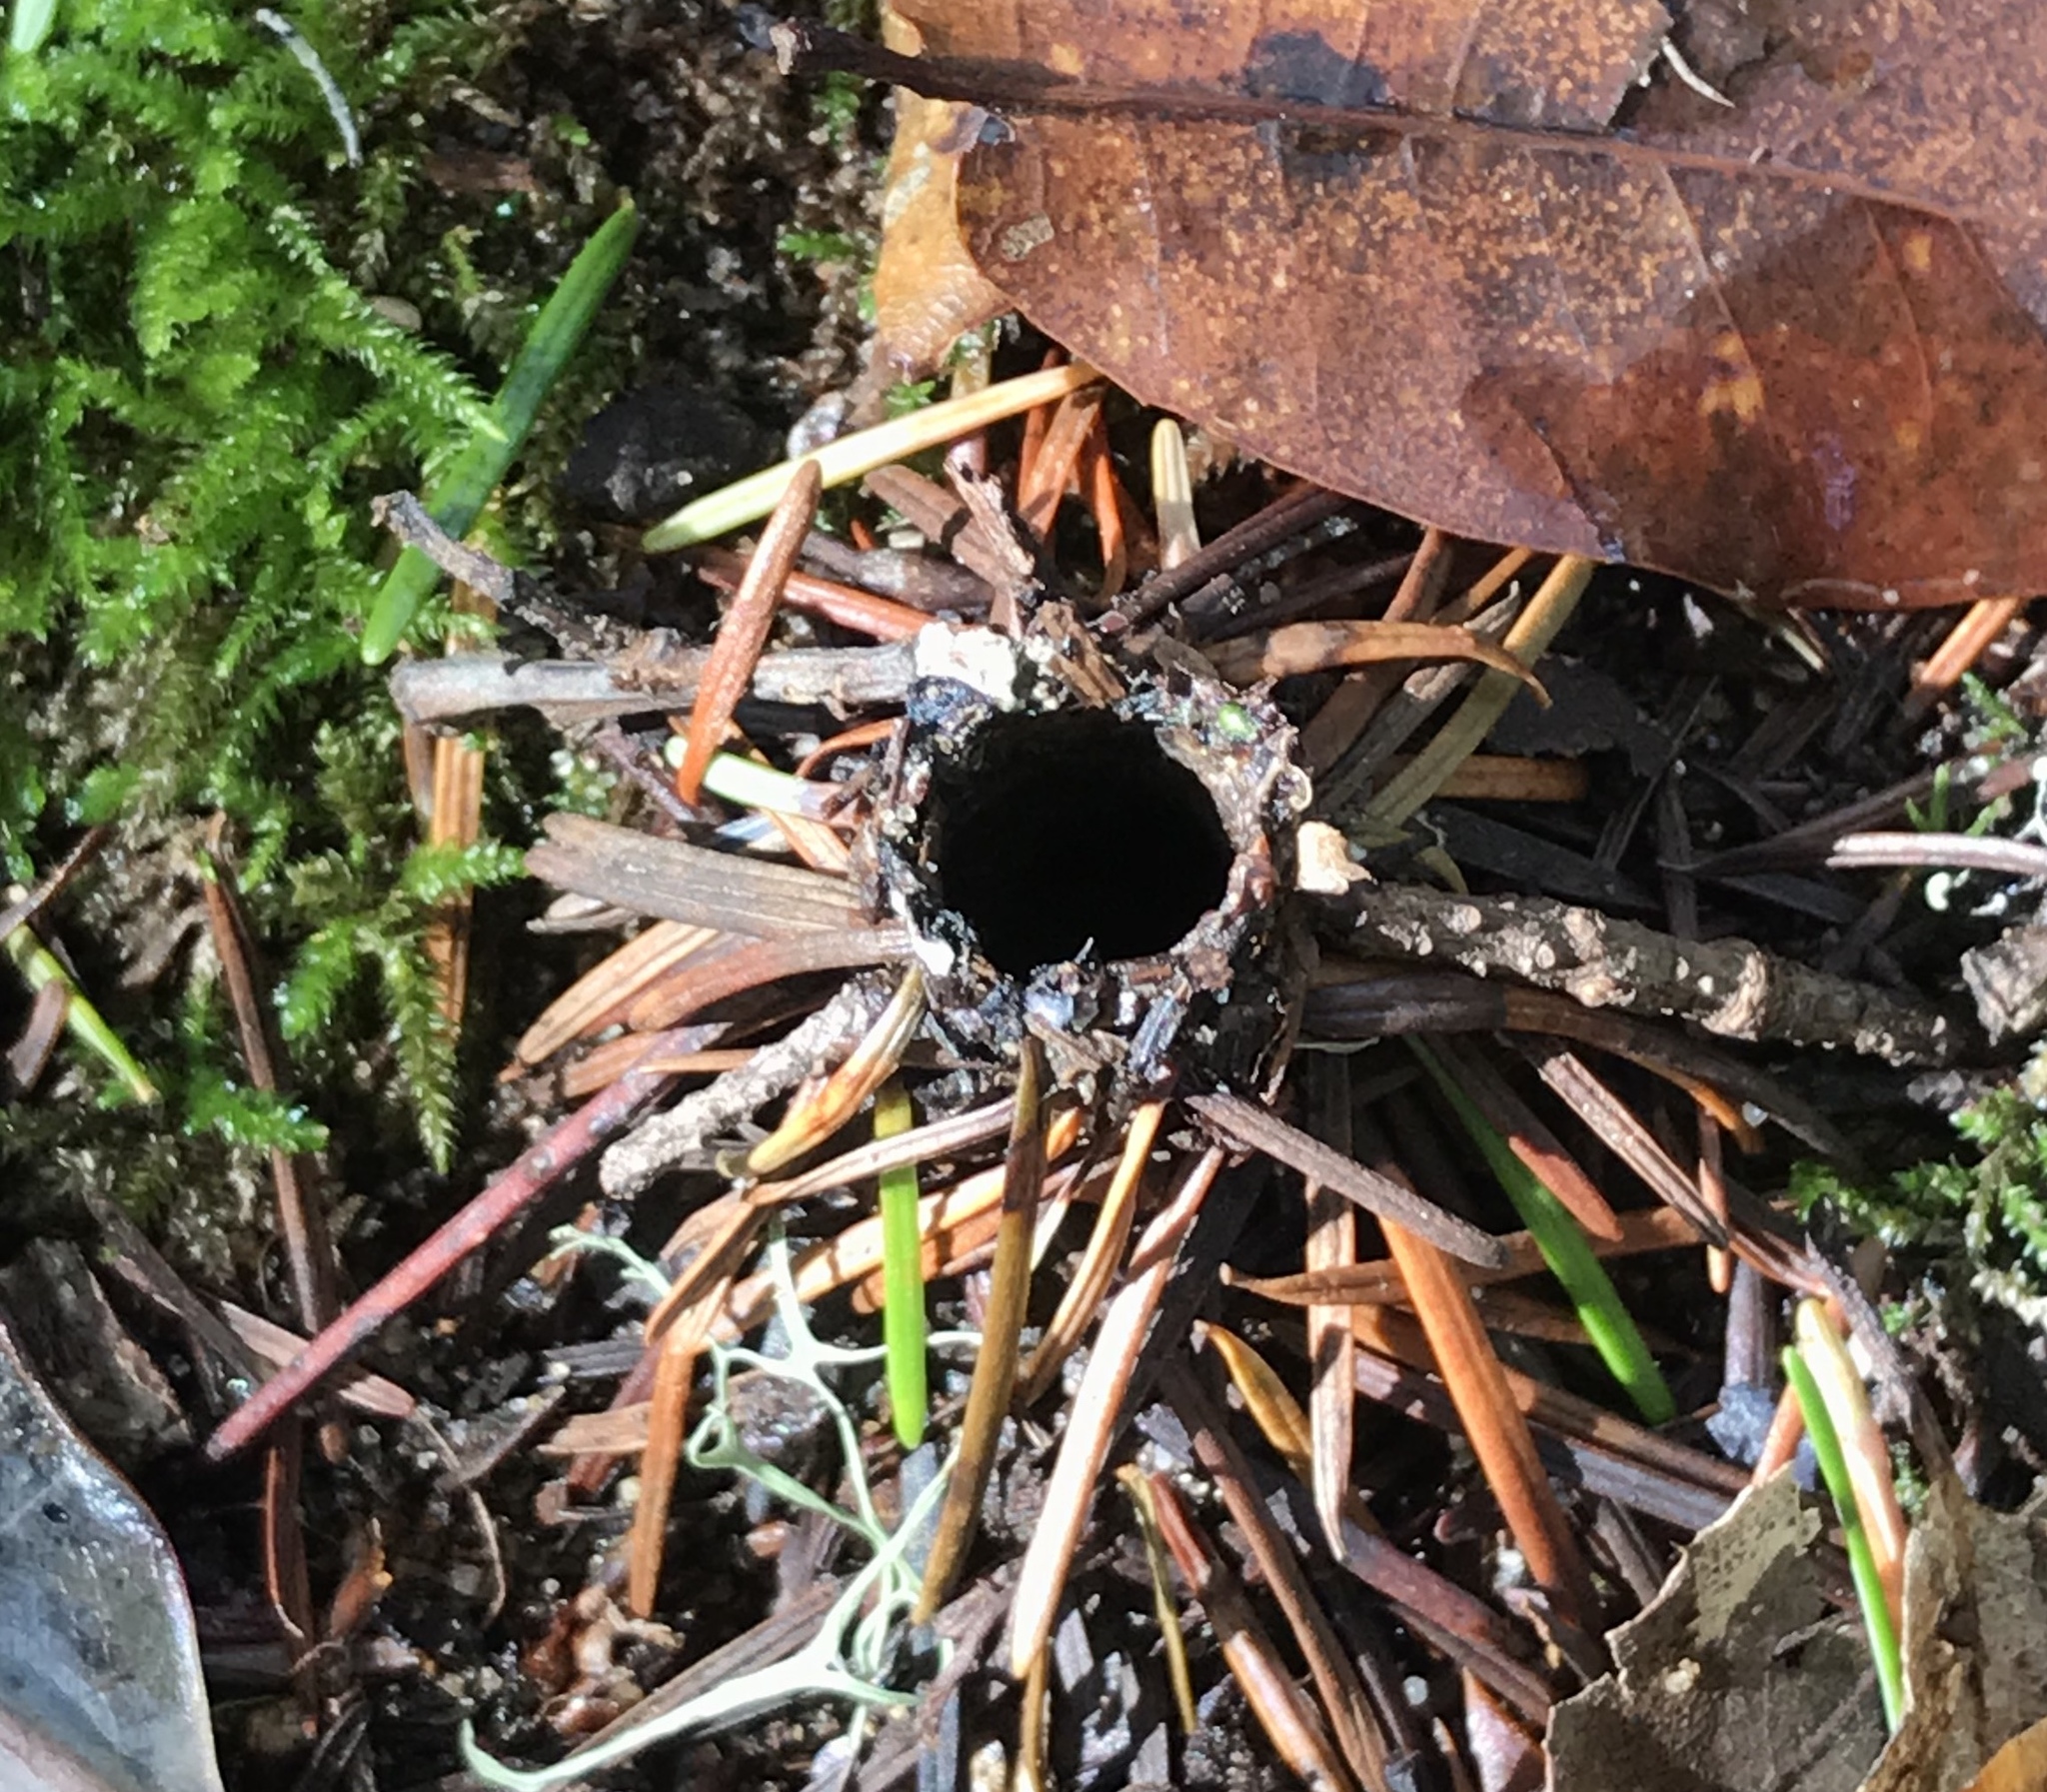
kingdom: Animalia
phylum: Arthropoda
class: Arachnida
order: Araneae
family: Antrodiaetidae
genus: Atypoides
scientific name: Atypoides riversi
